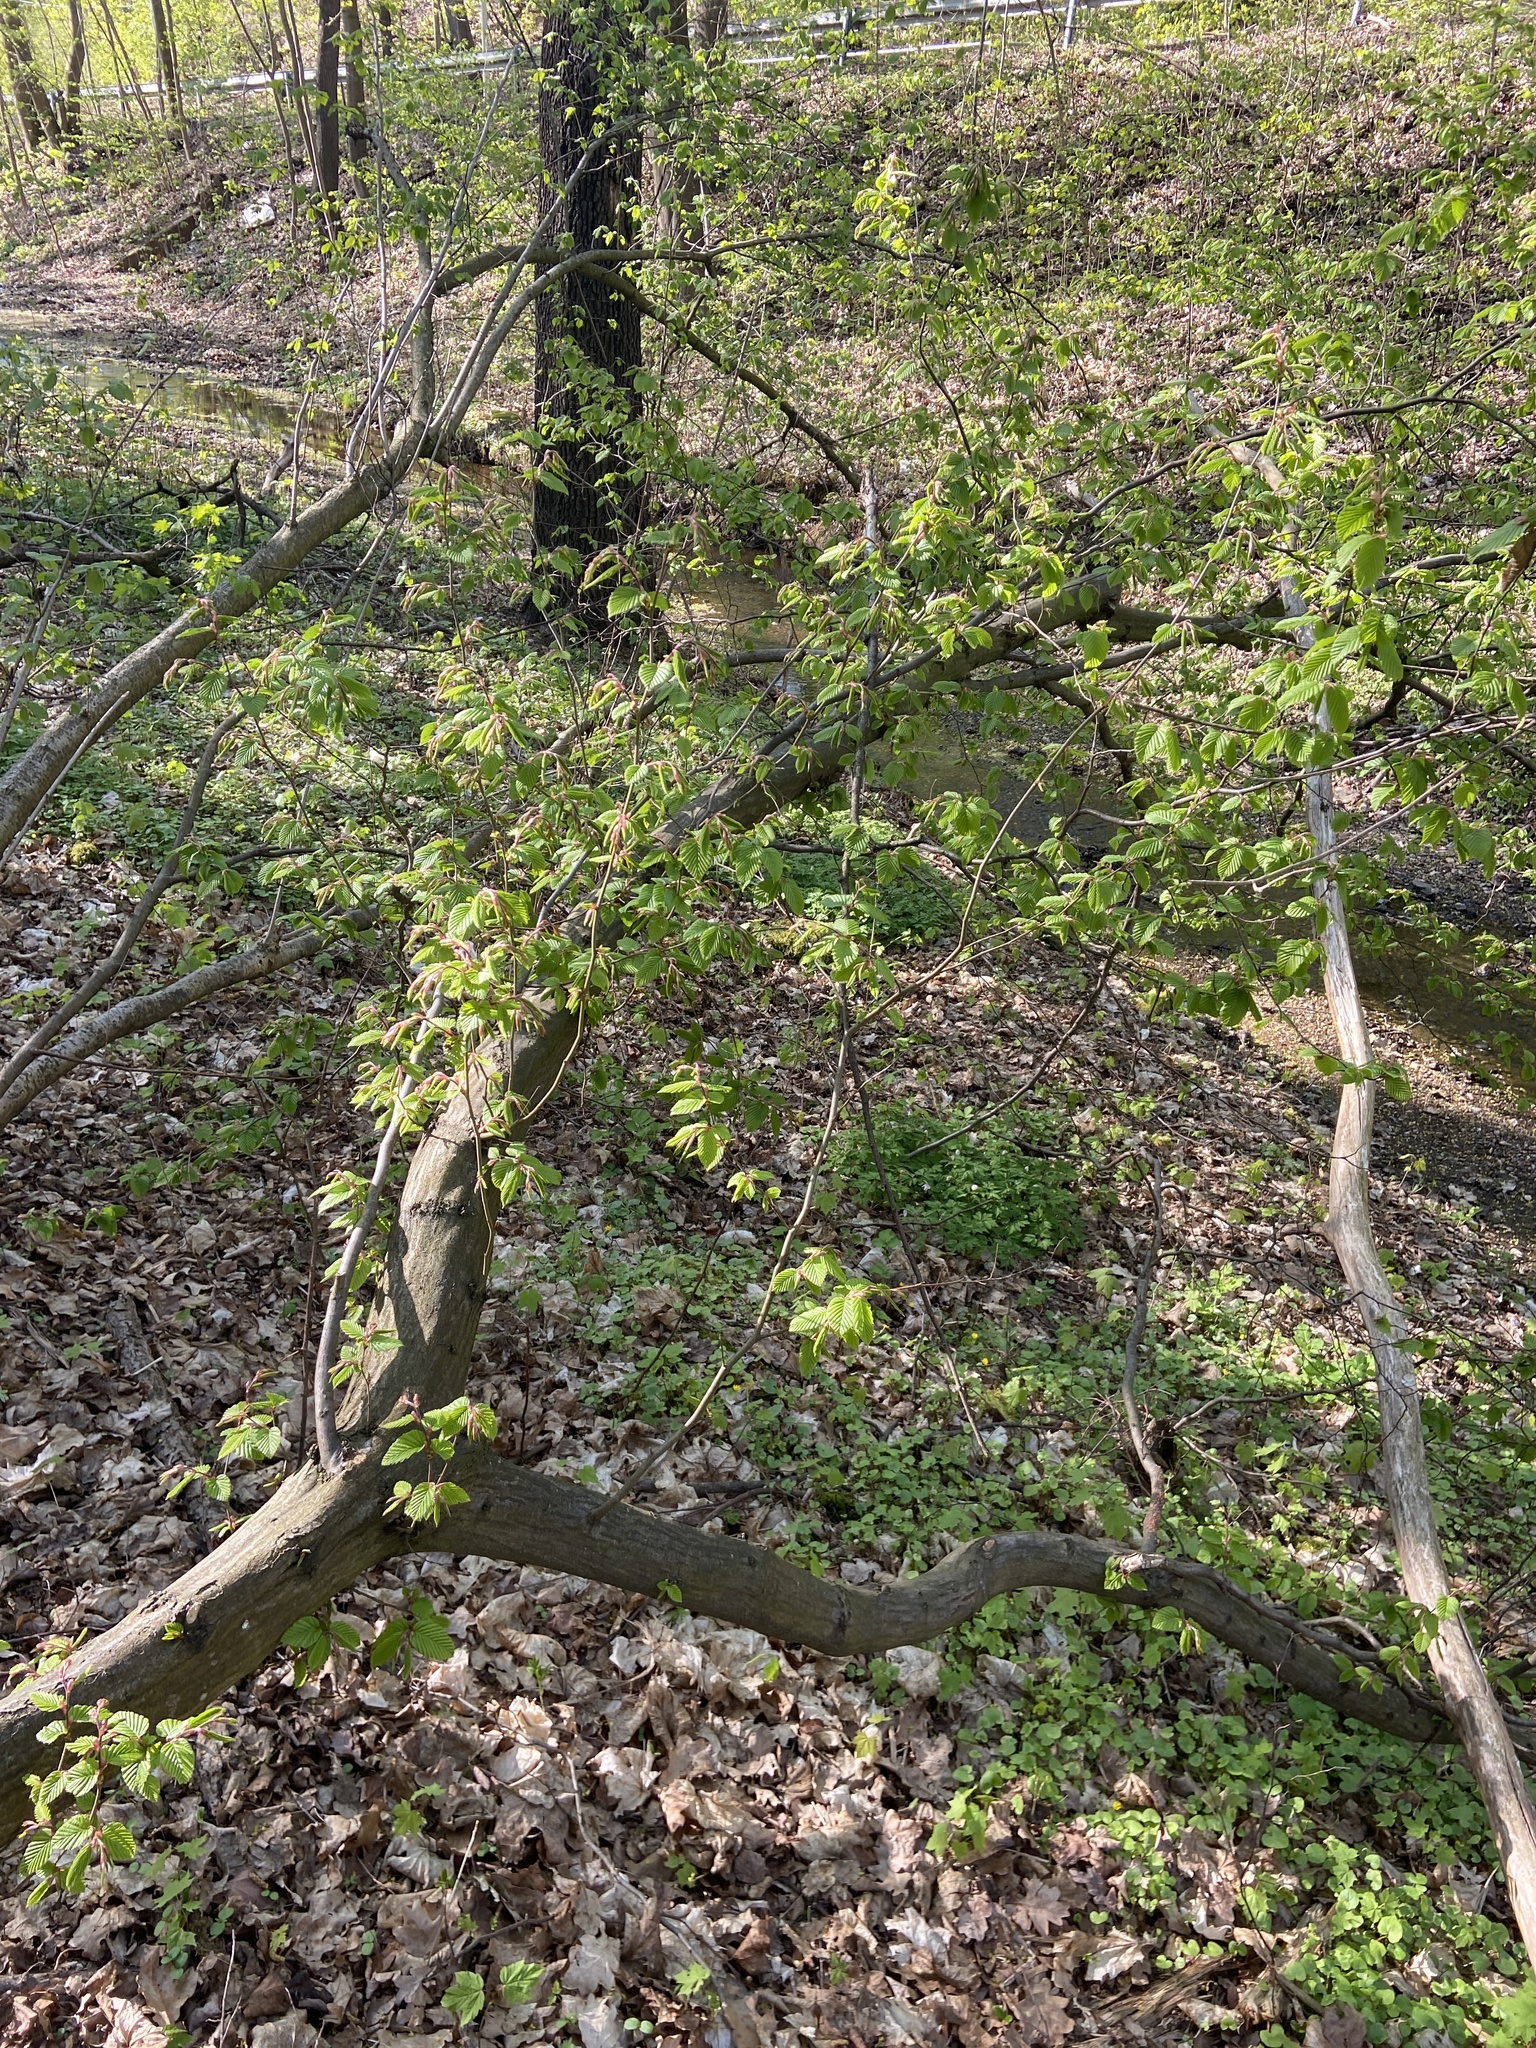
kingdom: Plantae
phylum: Tracheophyta
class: Magnoliopsida
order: Fagales
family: Betulaceae
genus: Carpinus
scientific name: Carpinus betulus
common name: Hornbeam
